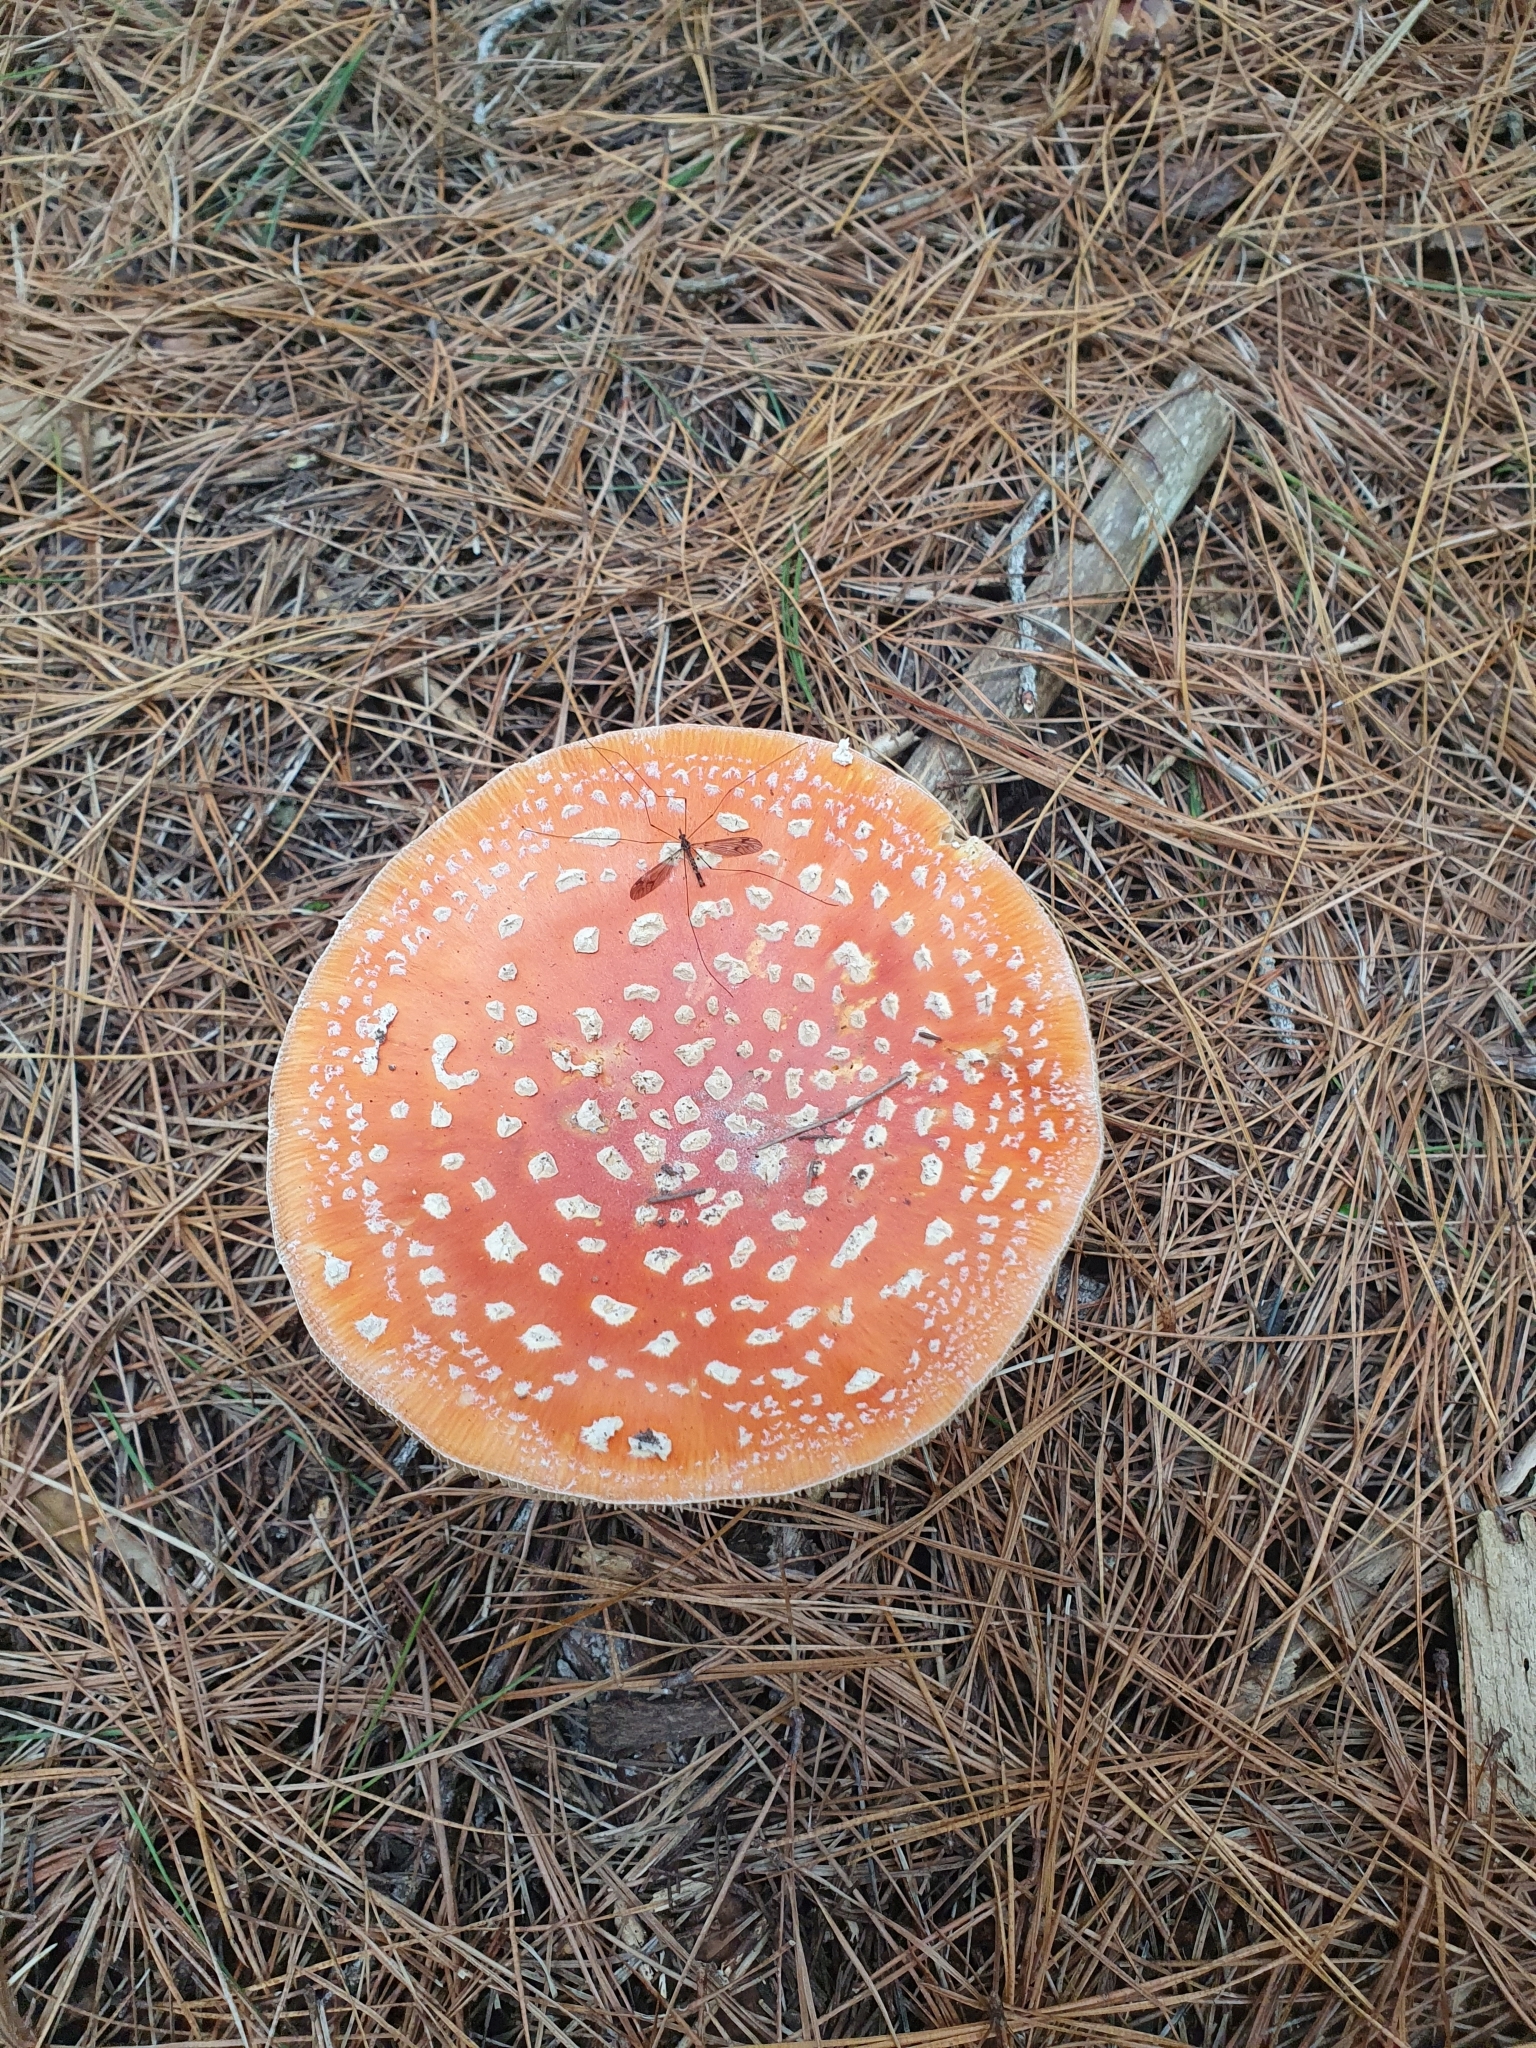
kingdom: Fungi
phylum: Basidiomycota
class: Agaricomycetes
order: Agaricales
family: Amanitaceae
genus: Amanita
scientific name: Amanita muscaria
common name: Fly agaric
